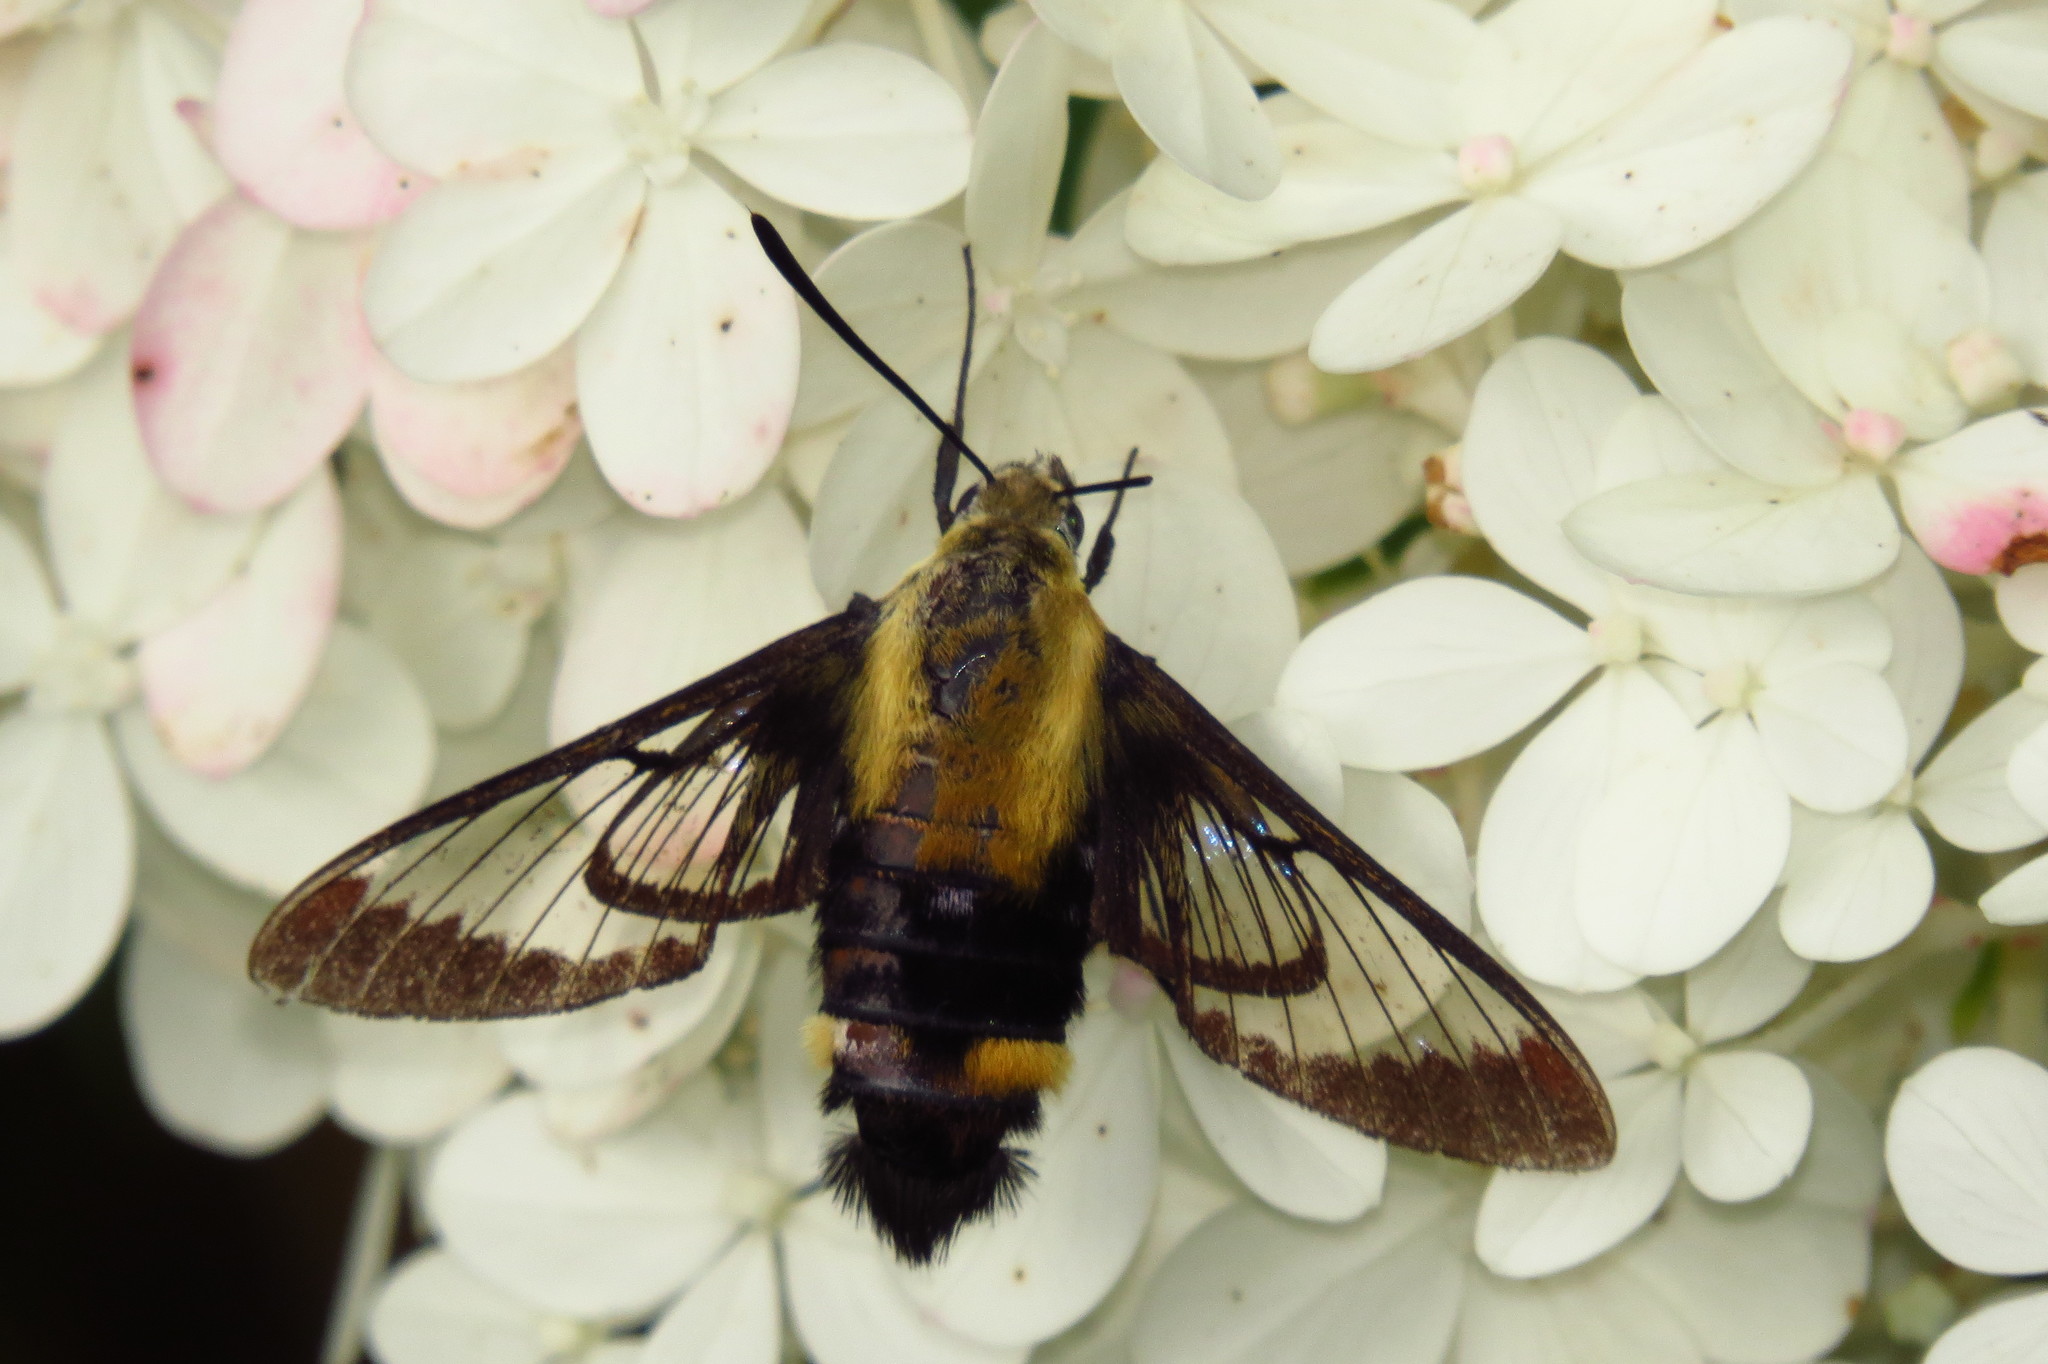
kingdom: Animalia
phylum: Arthropoda
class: Insecta
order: Lepidoptera
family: Sphingidae
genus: Hemaris
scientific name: Hemaris diffinis
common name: Bumblebee moth
